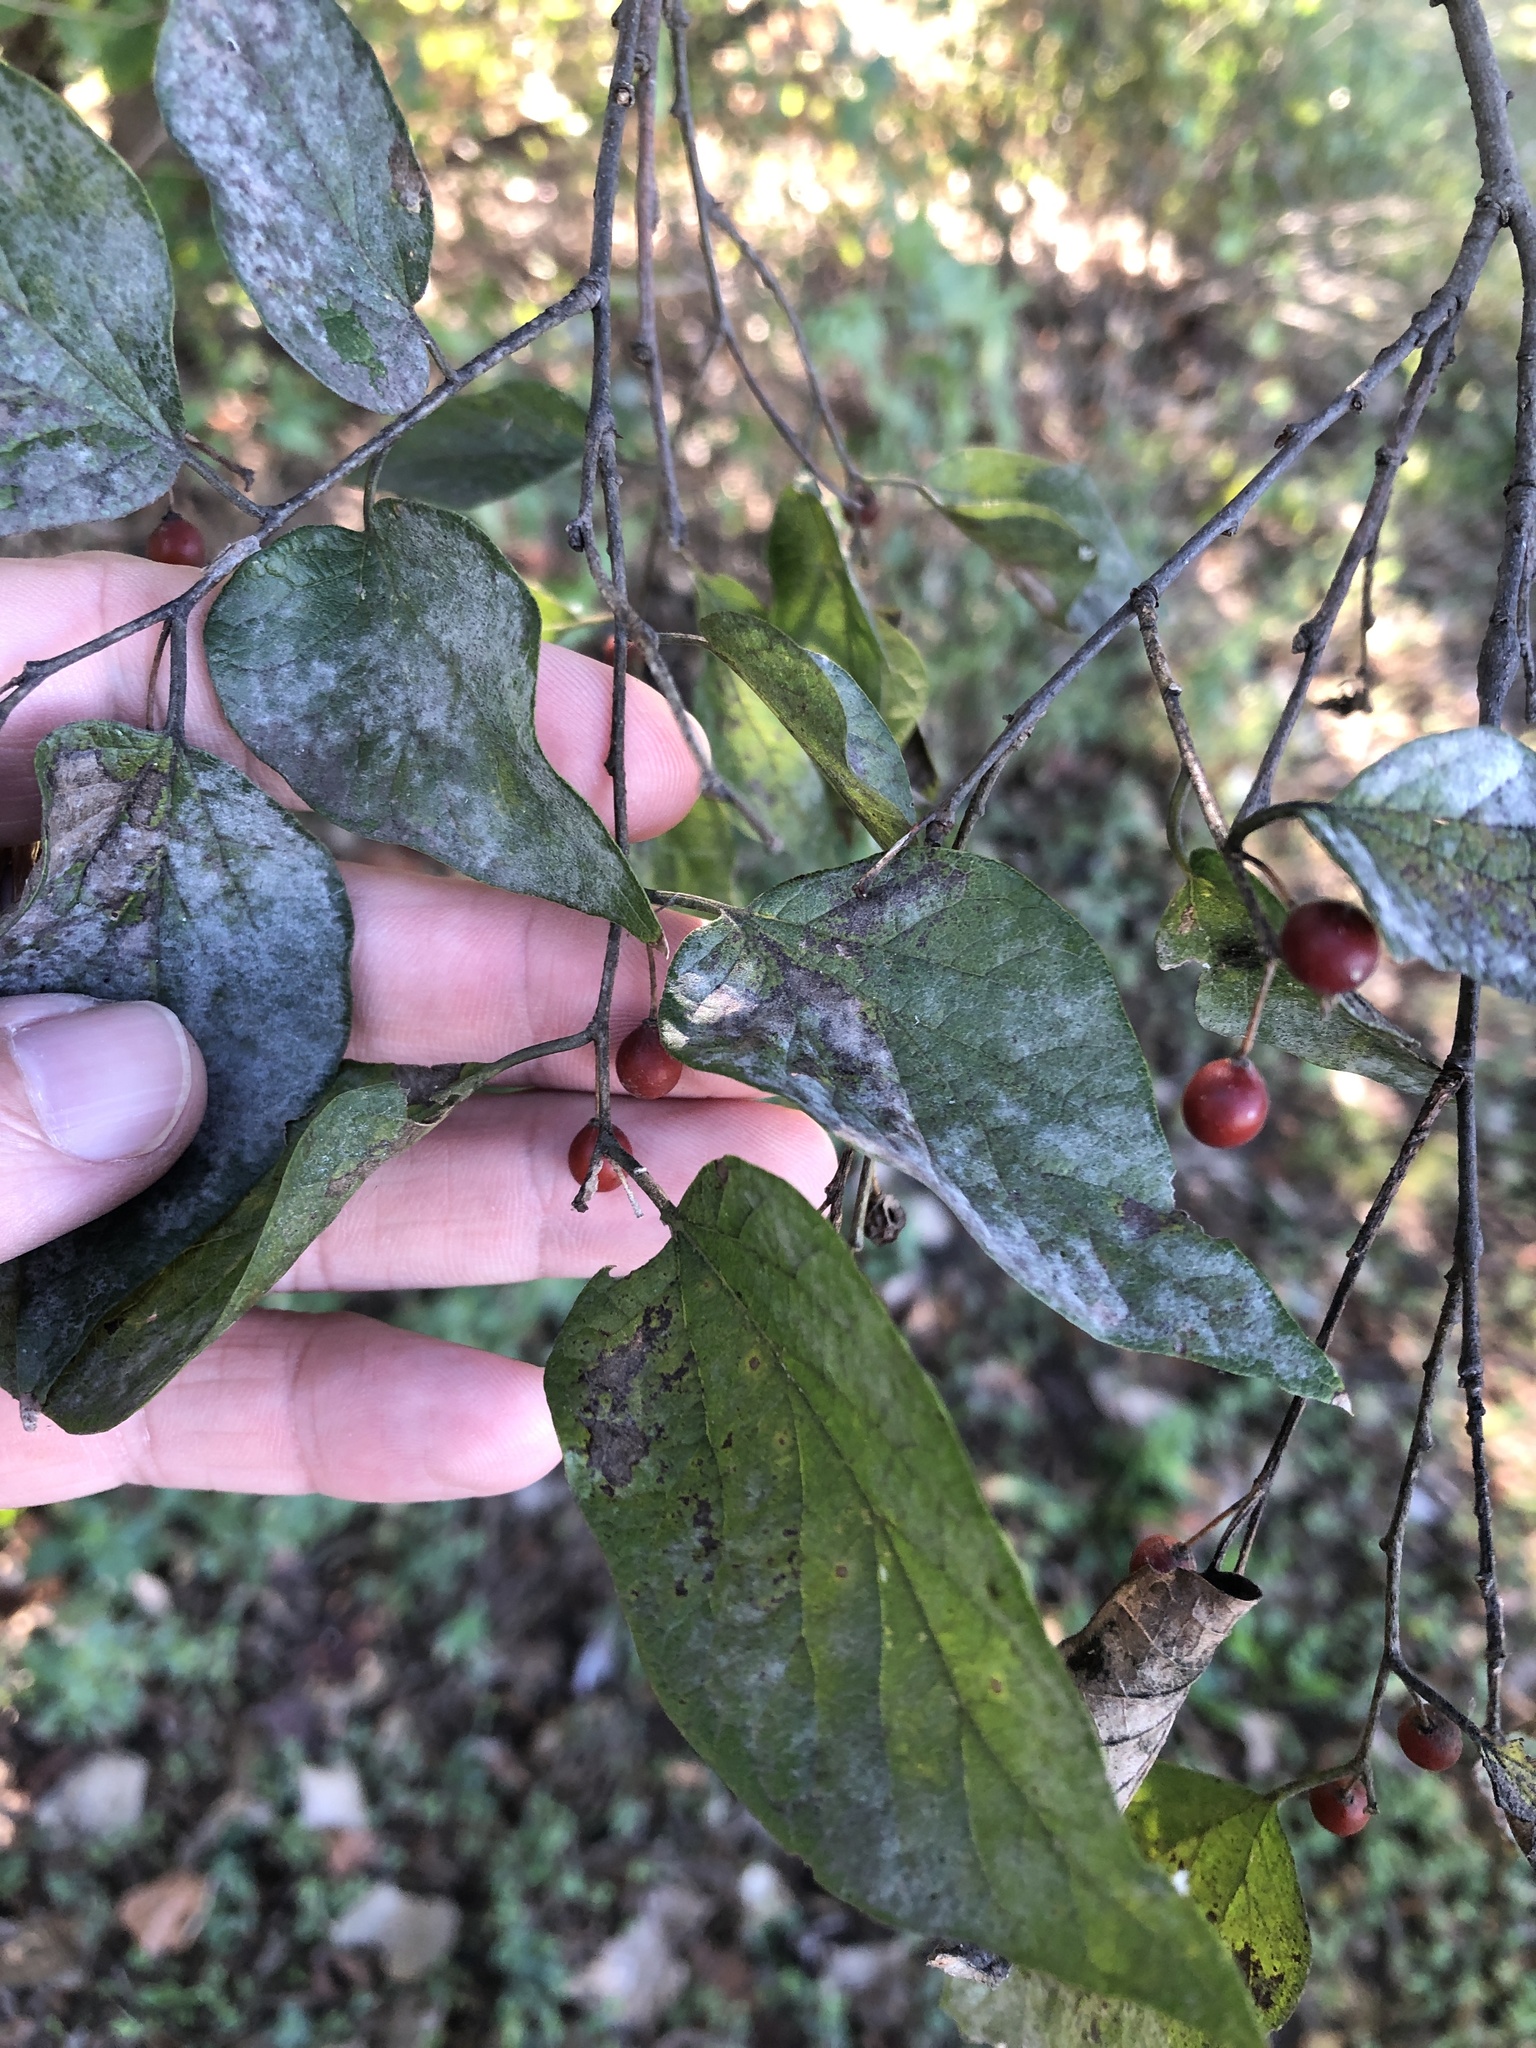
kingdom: Plantae
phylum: Tracheophyta
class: Magnoliopsida
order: Rosales
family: Cannabaceae
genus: Celtis
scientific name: Celtis laevigata
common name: Sugarberry
